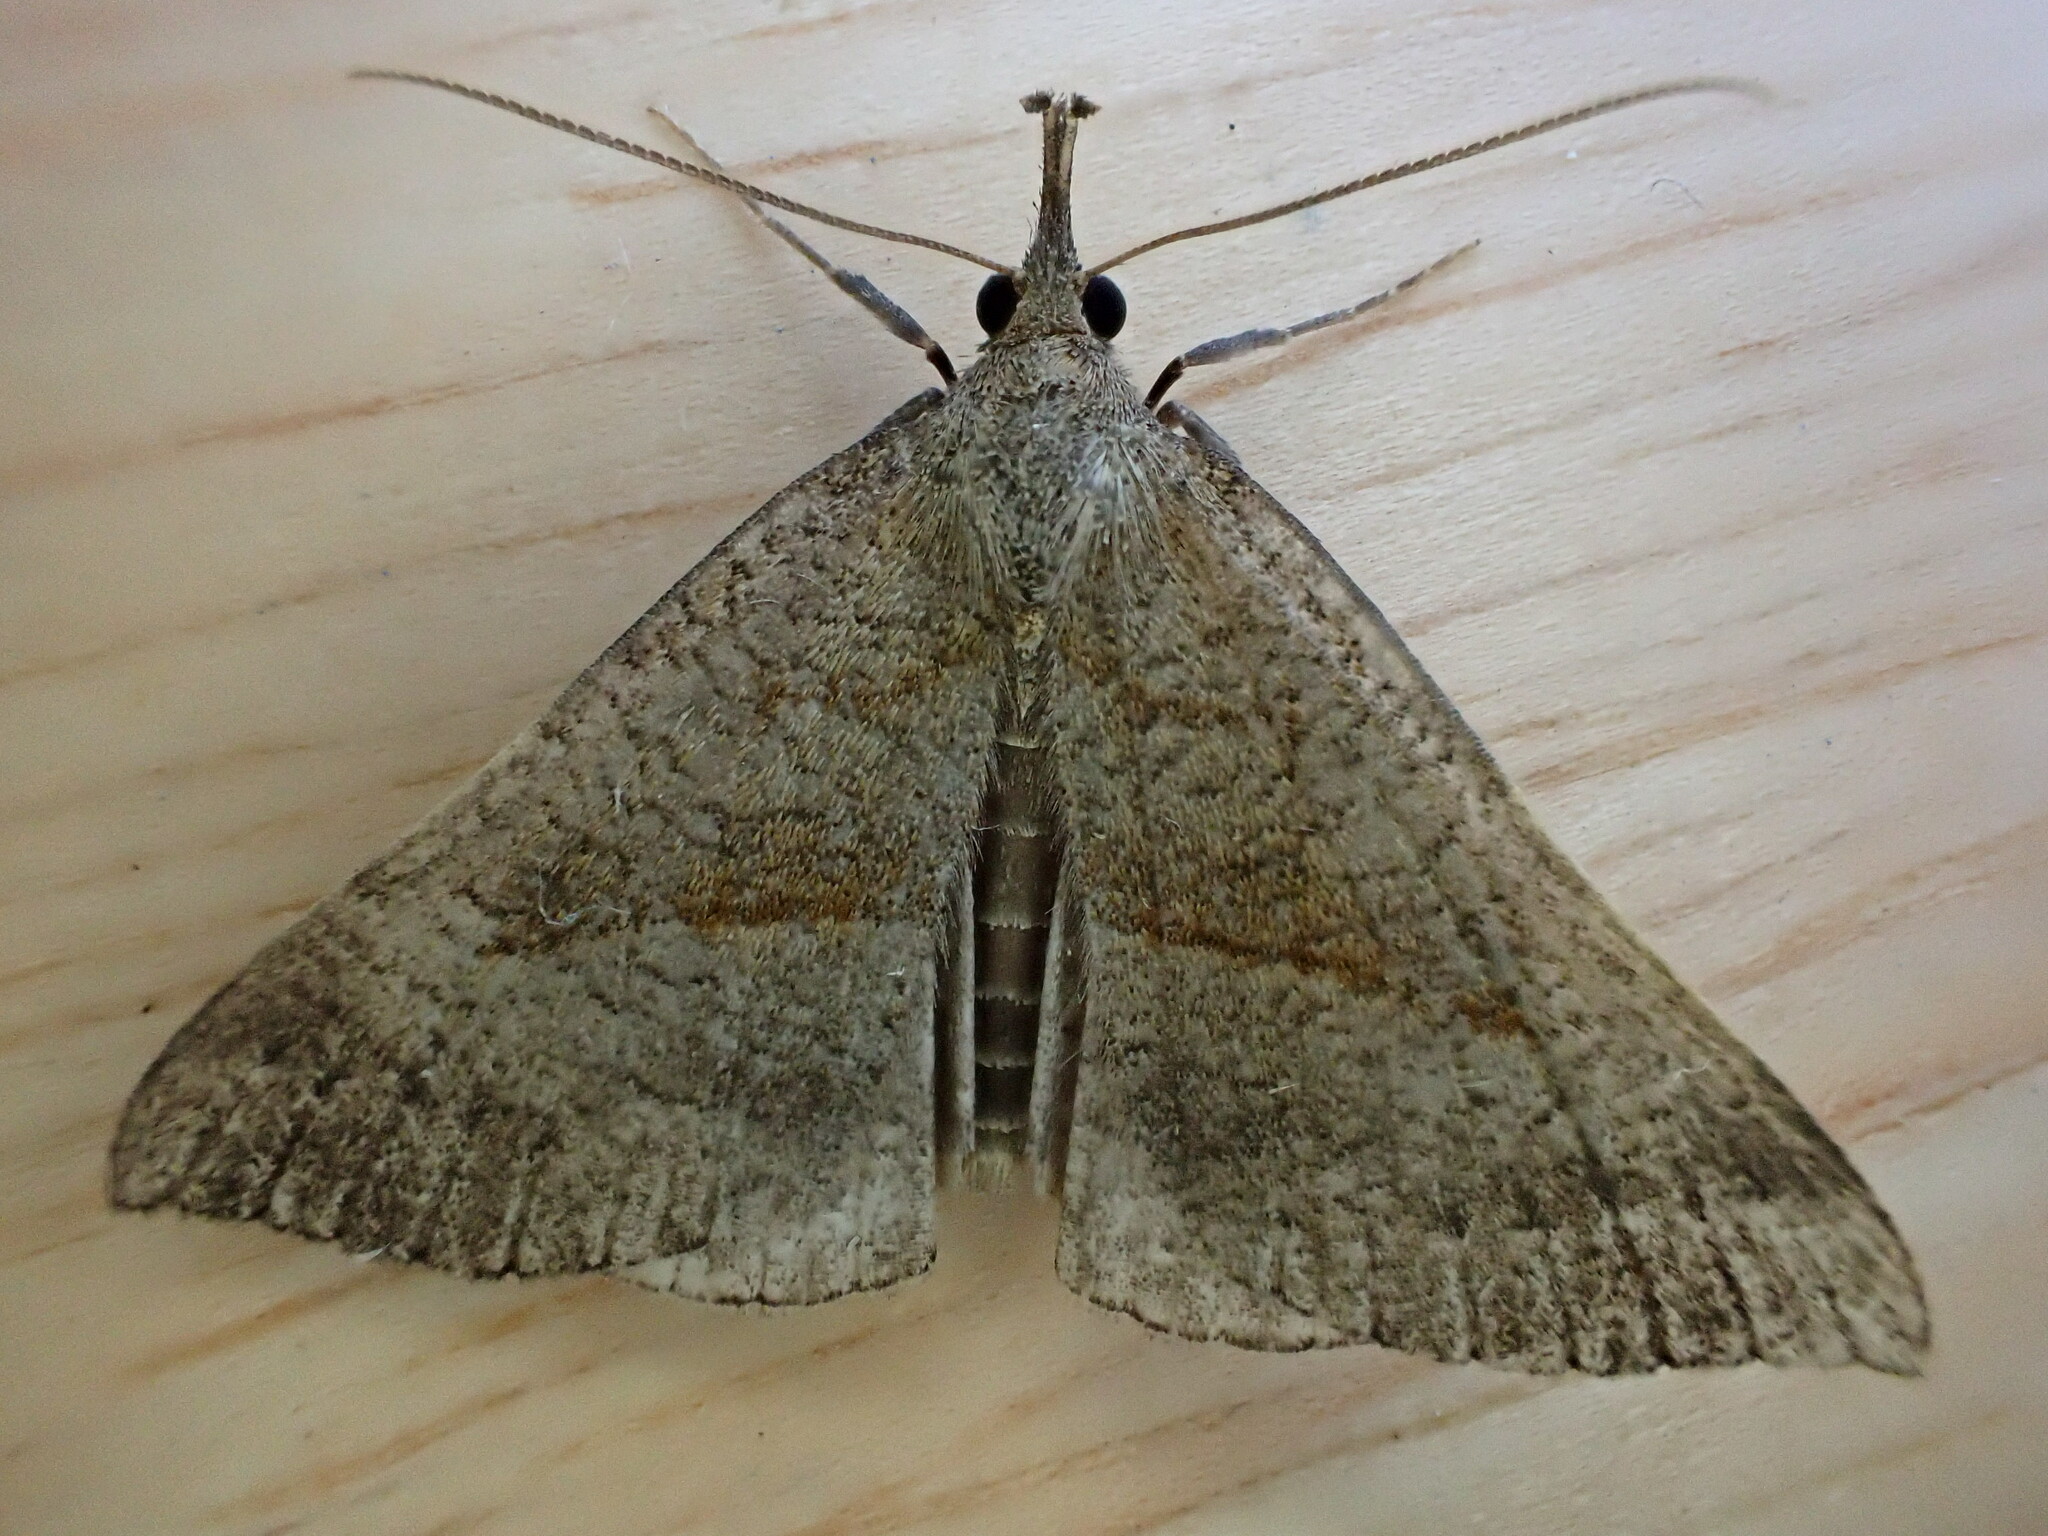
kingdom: Animalia
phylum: Arthropoda
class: Insecta
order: Lepidoptera
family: Erebidae
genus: Hypena
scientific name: Hypena proboscidalis
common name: Snout
